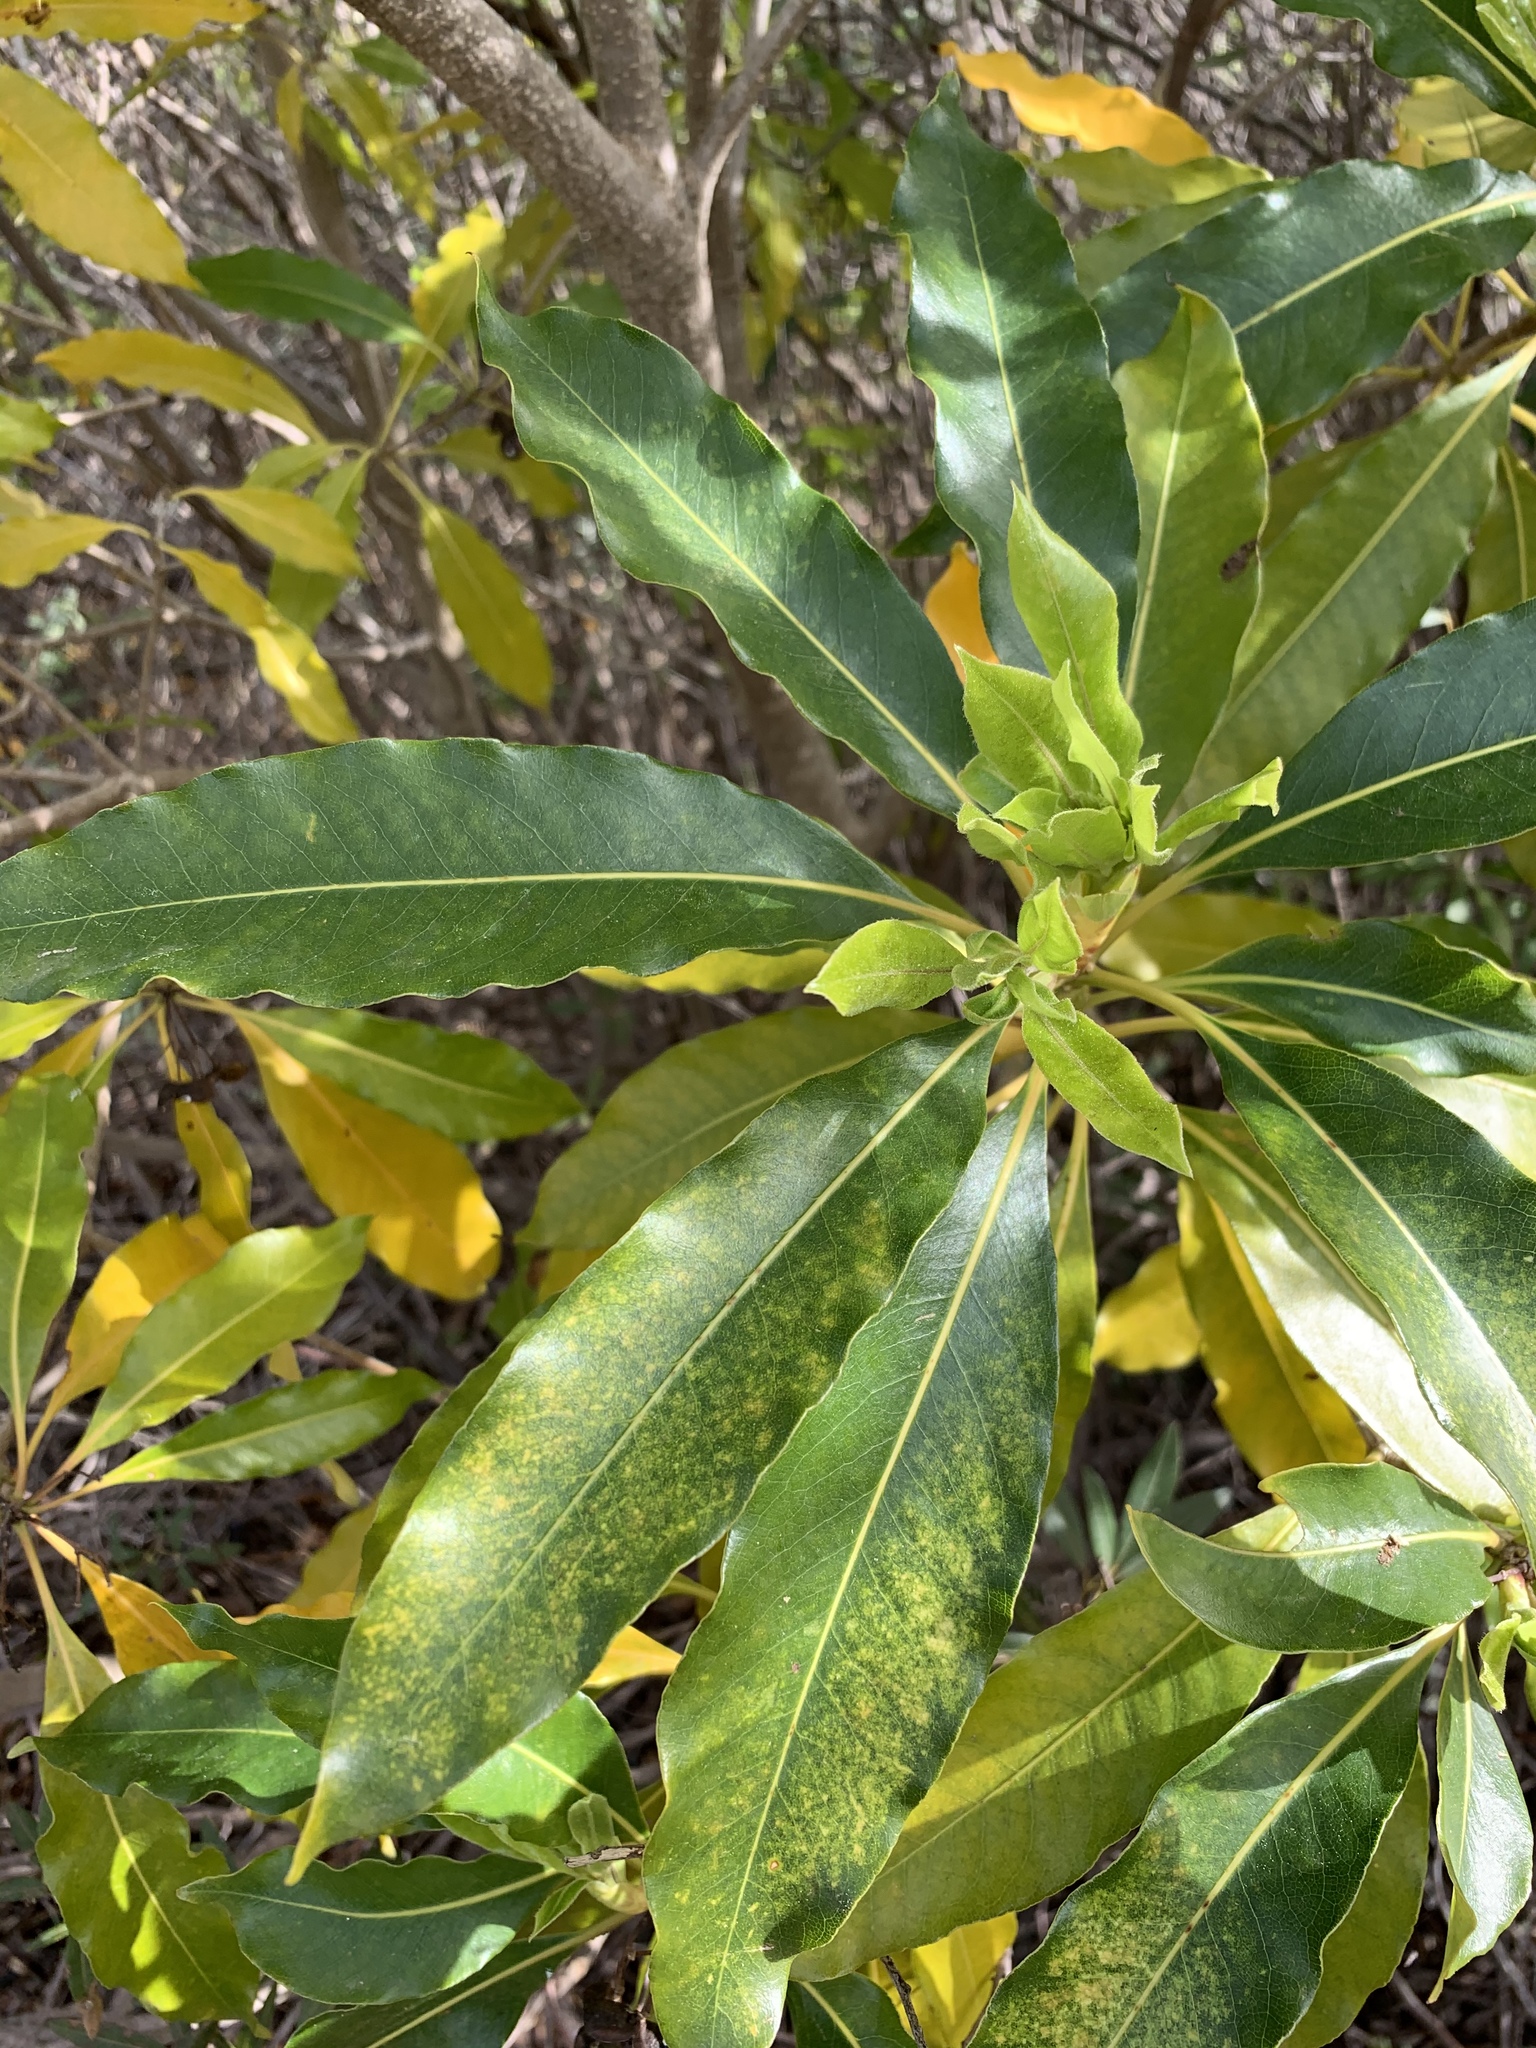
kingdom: Plantae
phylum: Tracheophyta
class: Magnoliopsida
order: Apiales
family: Pittosporaceae
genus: Pittosporum
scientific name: Pittosporum undulatum
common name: Australian cheesewood
